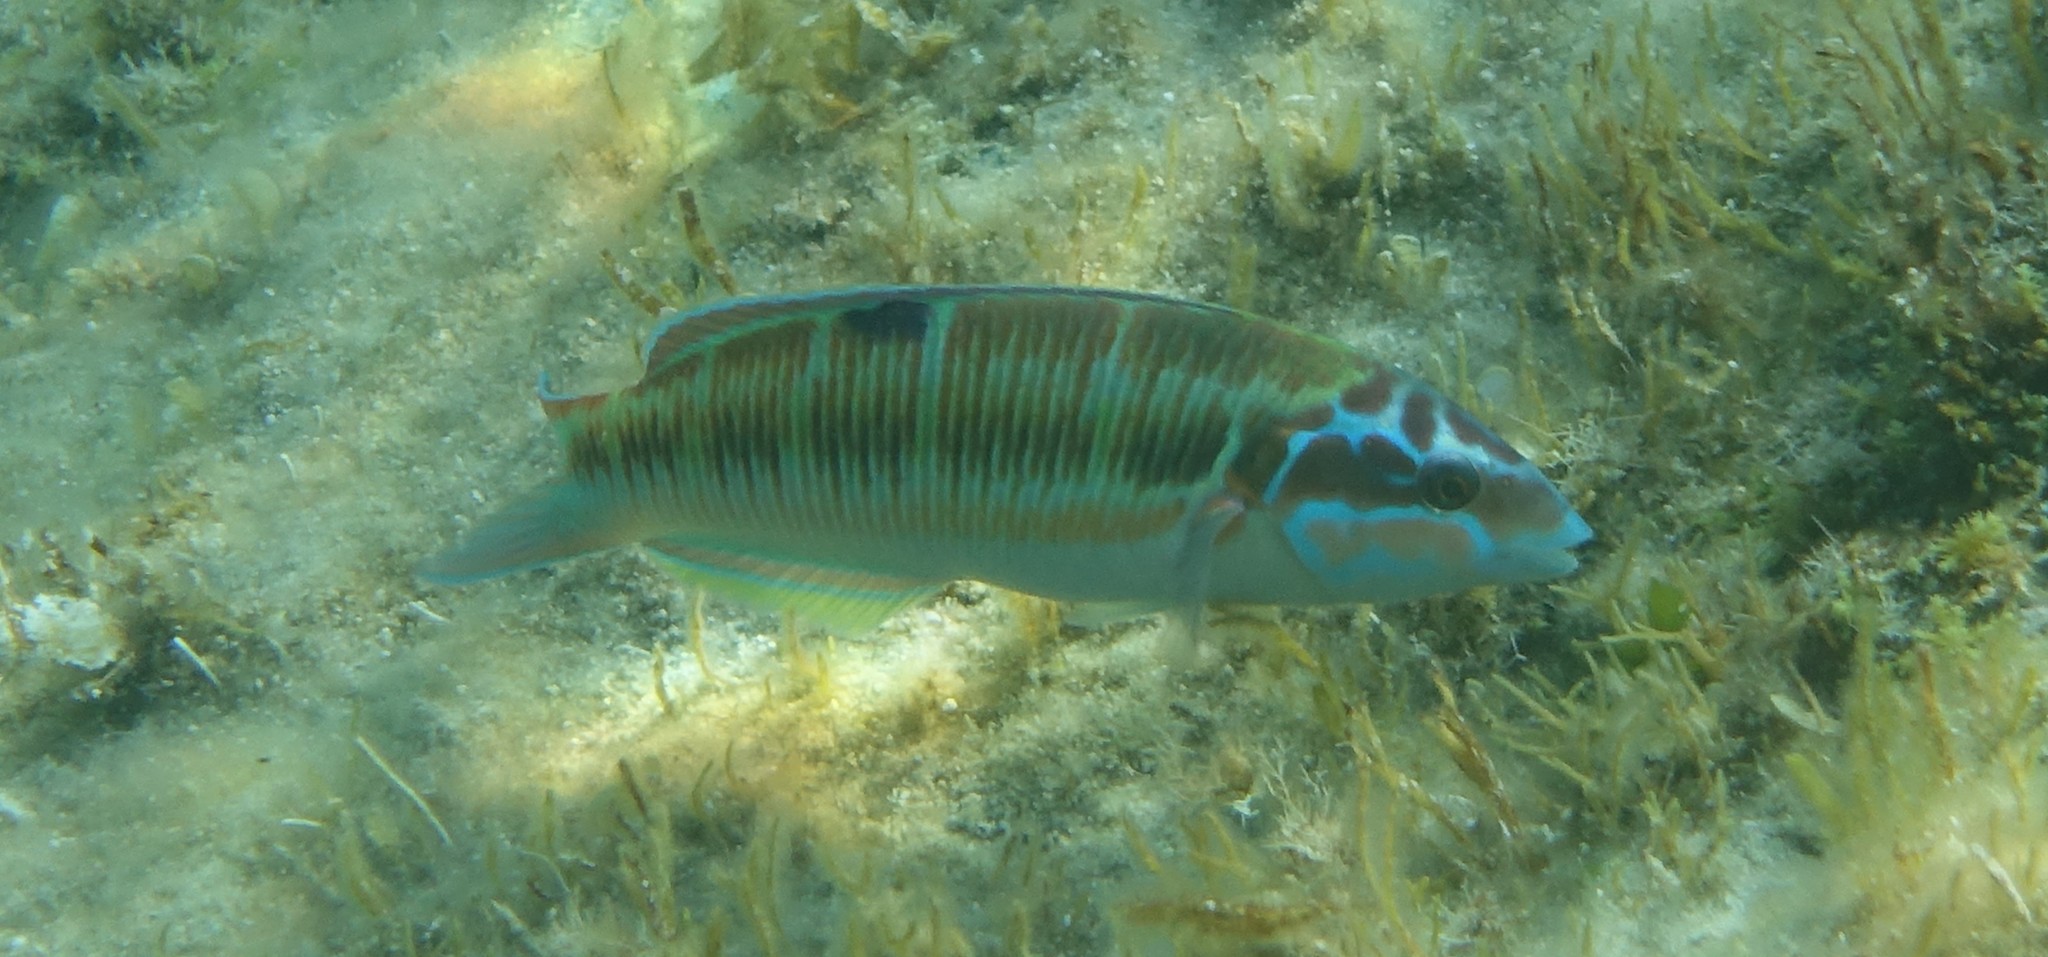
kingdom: Animalia
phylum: Chordata
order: Perciformes
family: Labridae
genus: Thalassoma
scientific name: Thalassoma pavo
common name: Ornate wrasse
